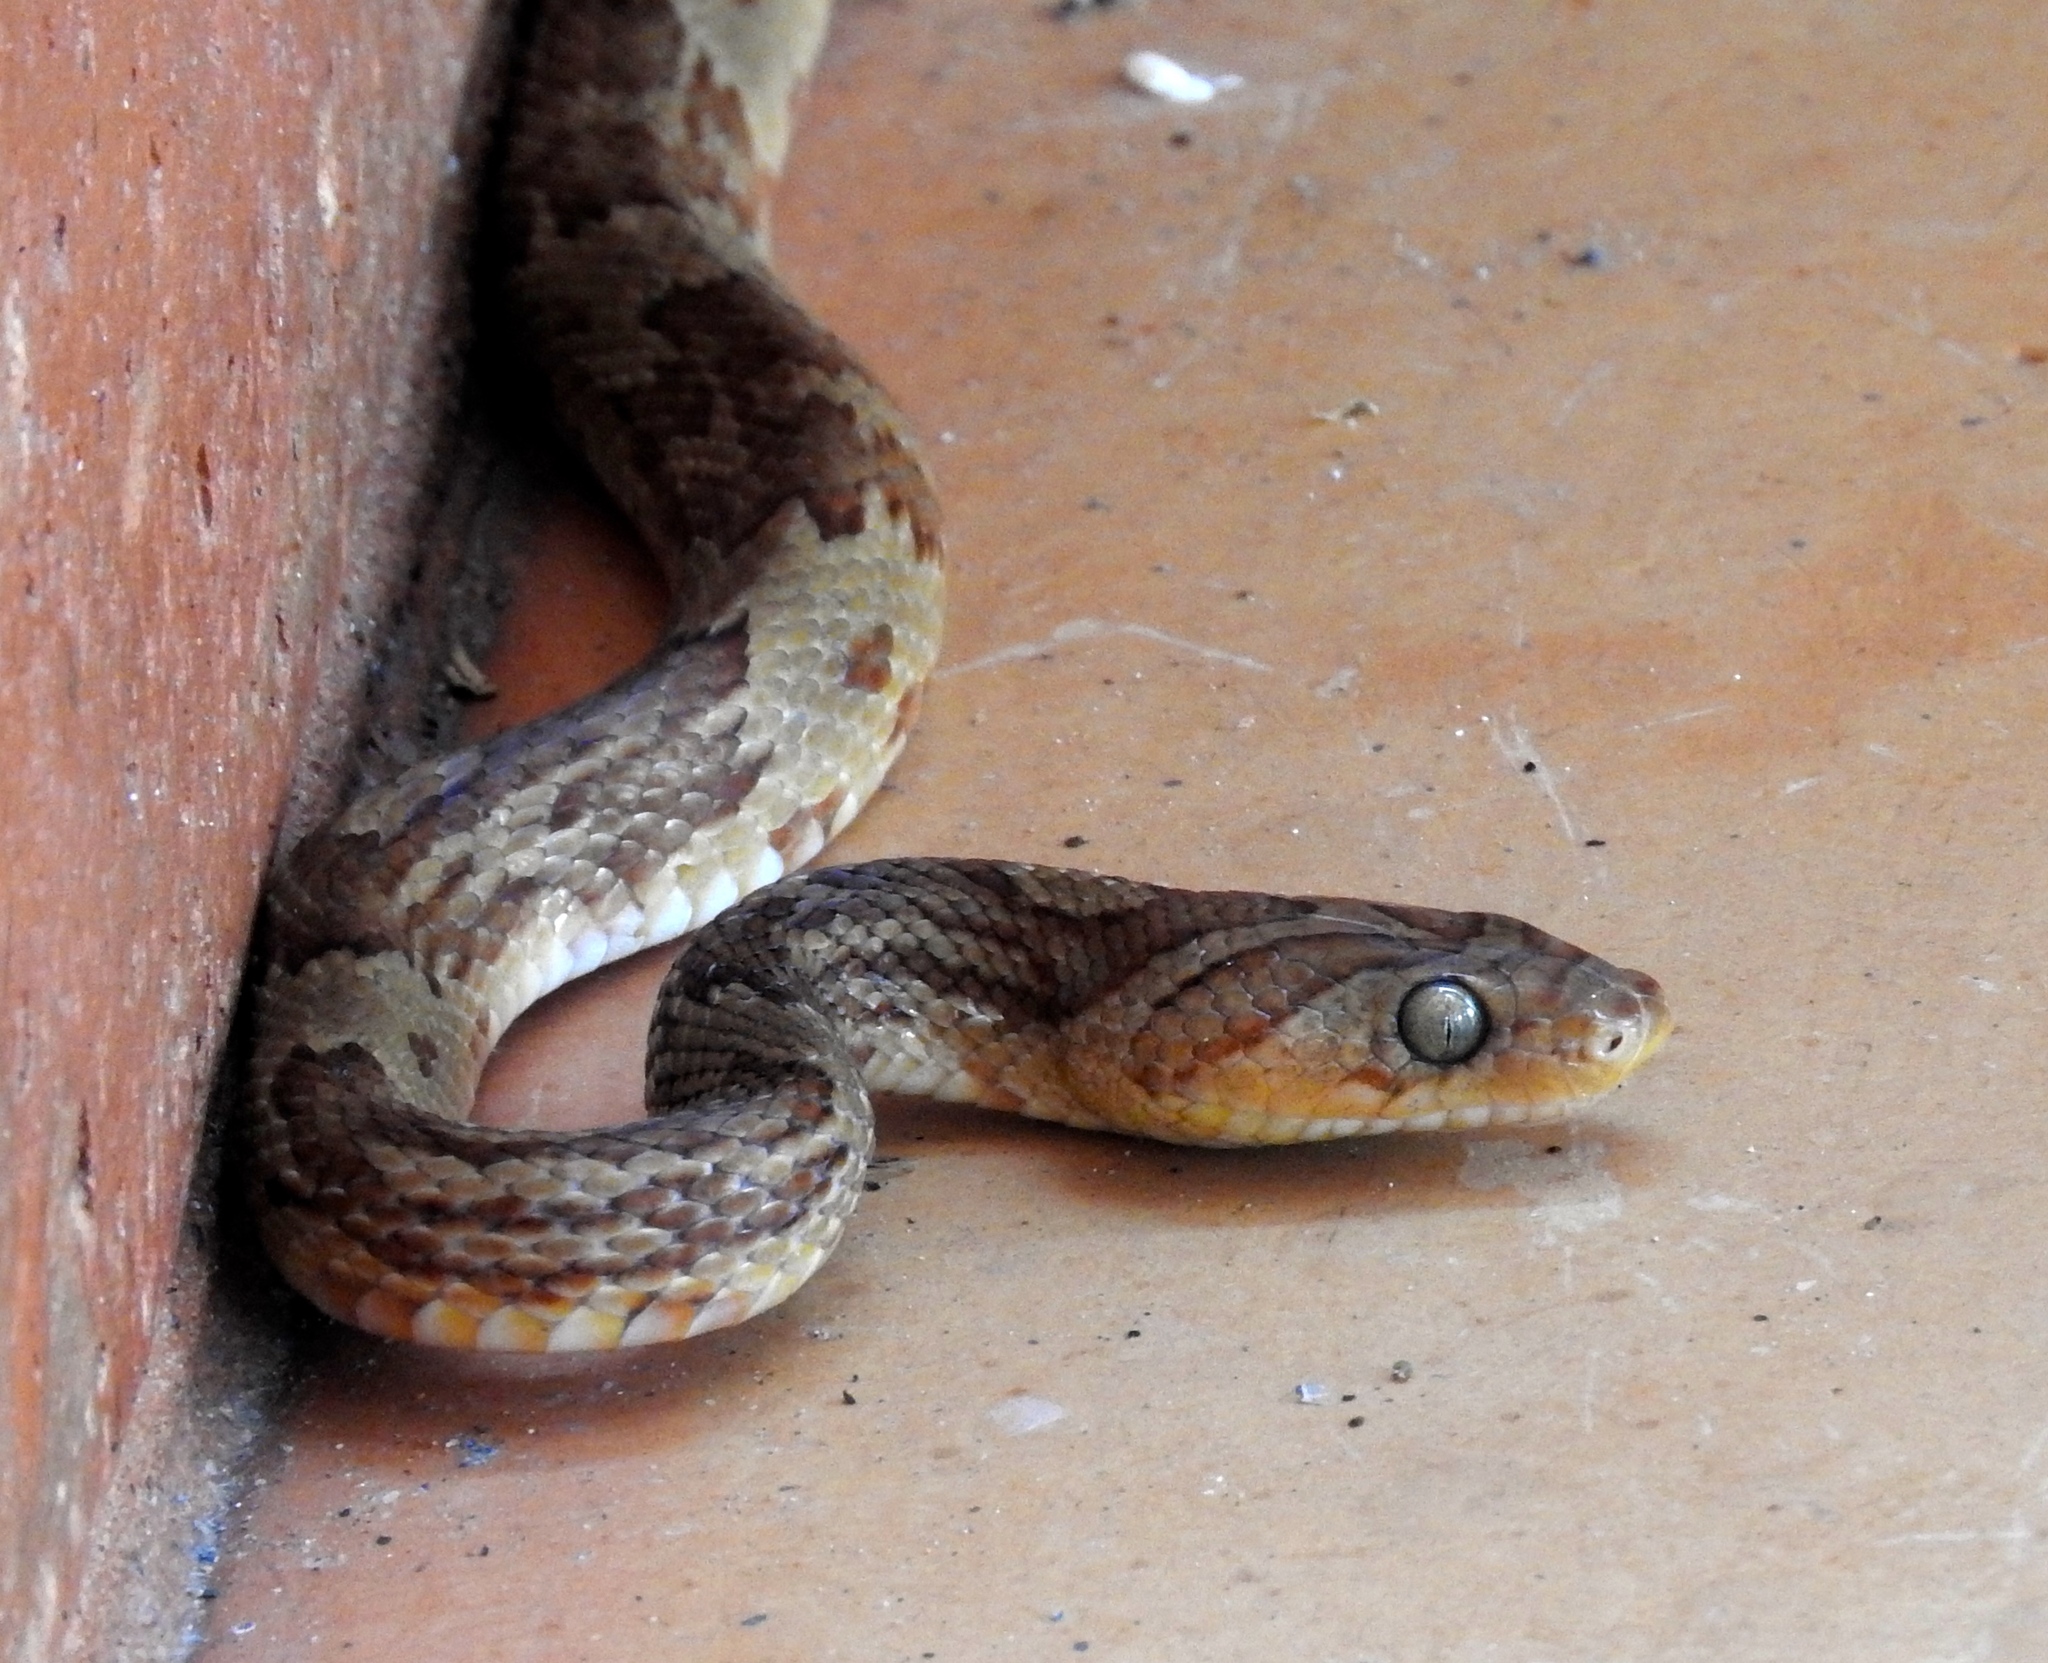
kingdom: Animalia
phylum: Chordata
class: Squamata
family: Colubridae
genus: Trimorphodon
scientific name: Trimorphodon paucimaculatus
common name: Sinaloan lyresnake
